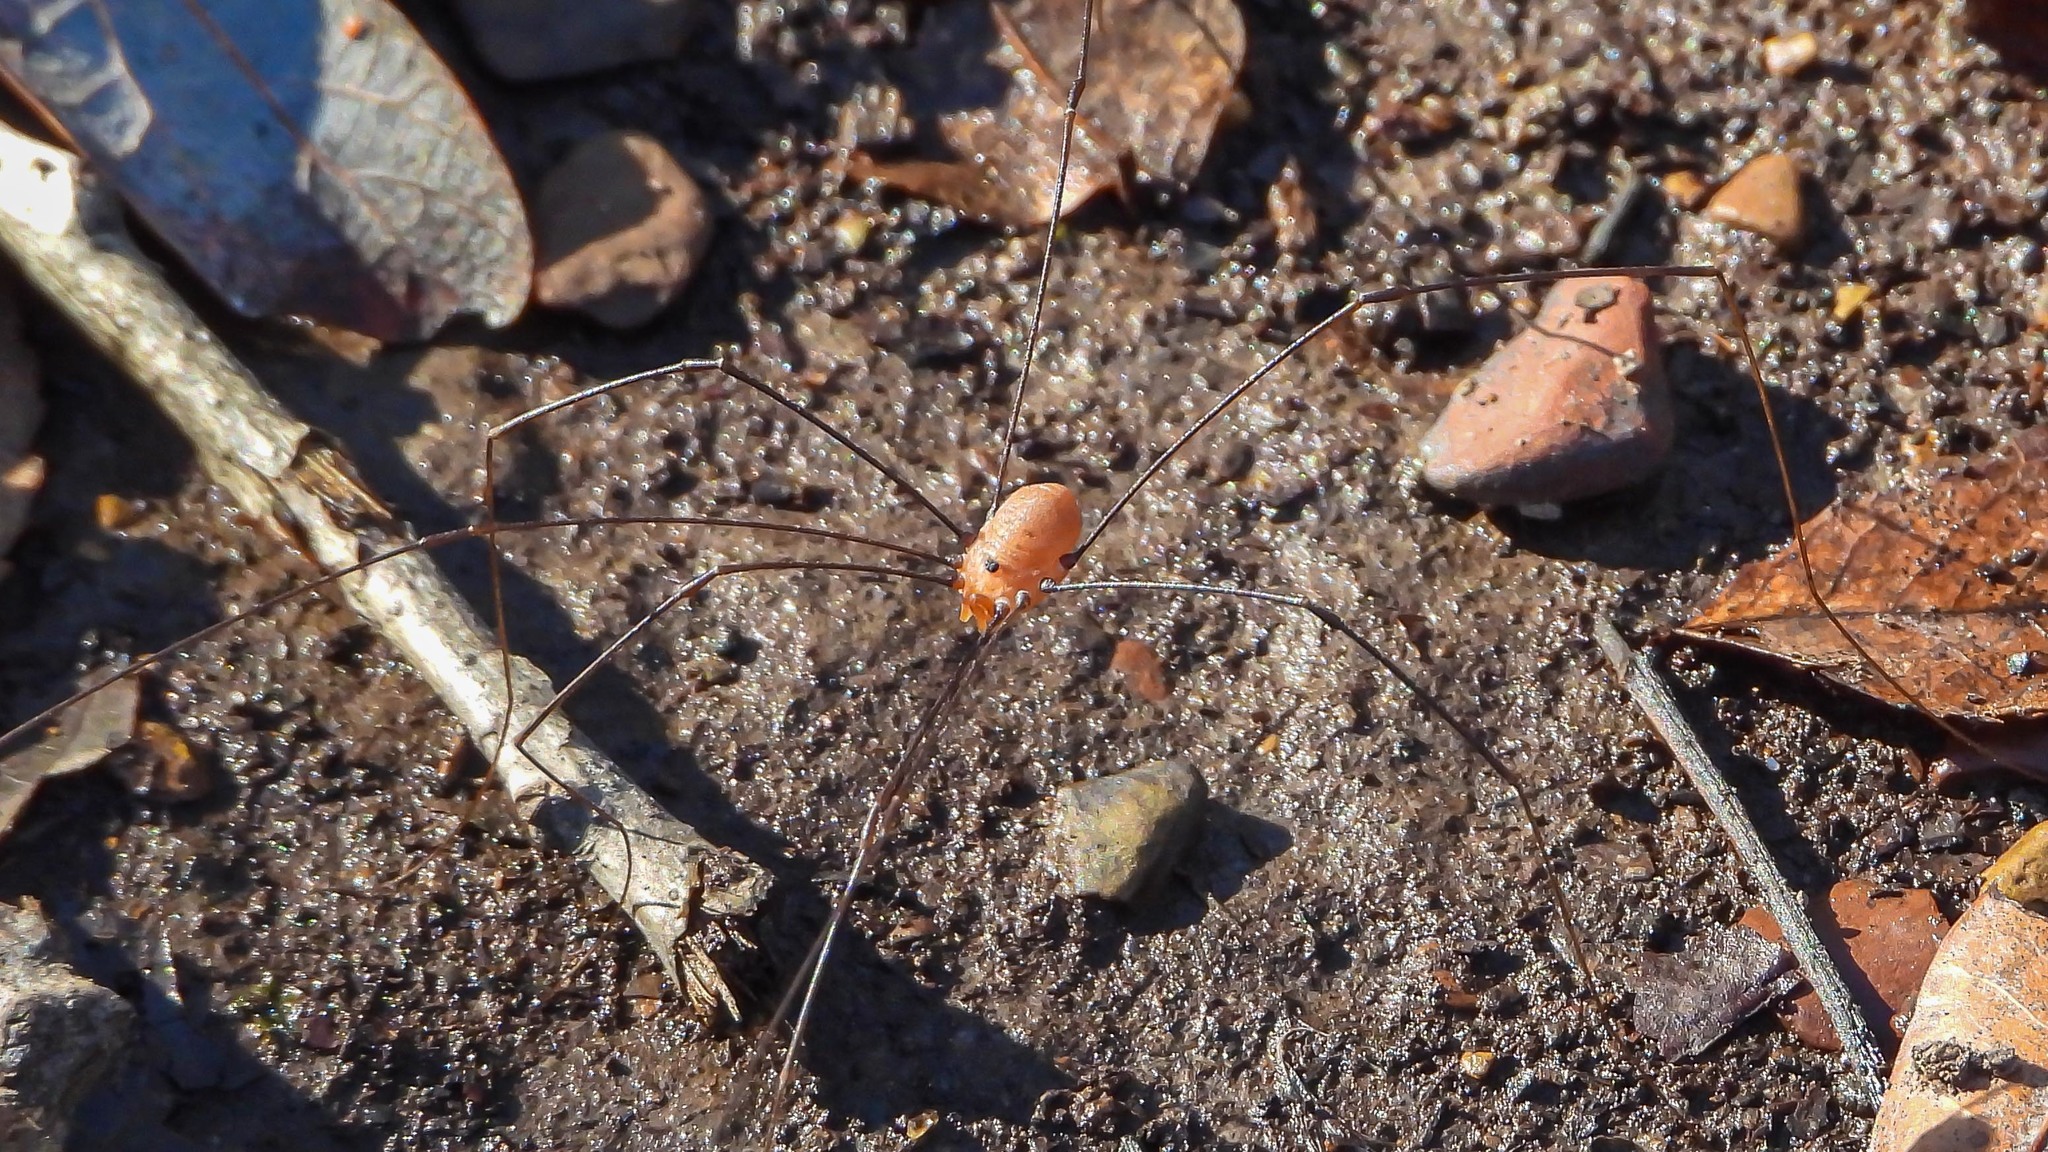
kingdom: Animalia
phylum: Arthropoda
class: Arachnida
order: Opiliones
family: Sclerosomatidae
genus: Leiobunum
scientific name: Leiobunum uxorium
